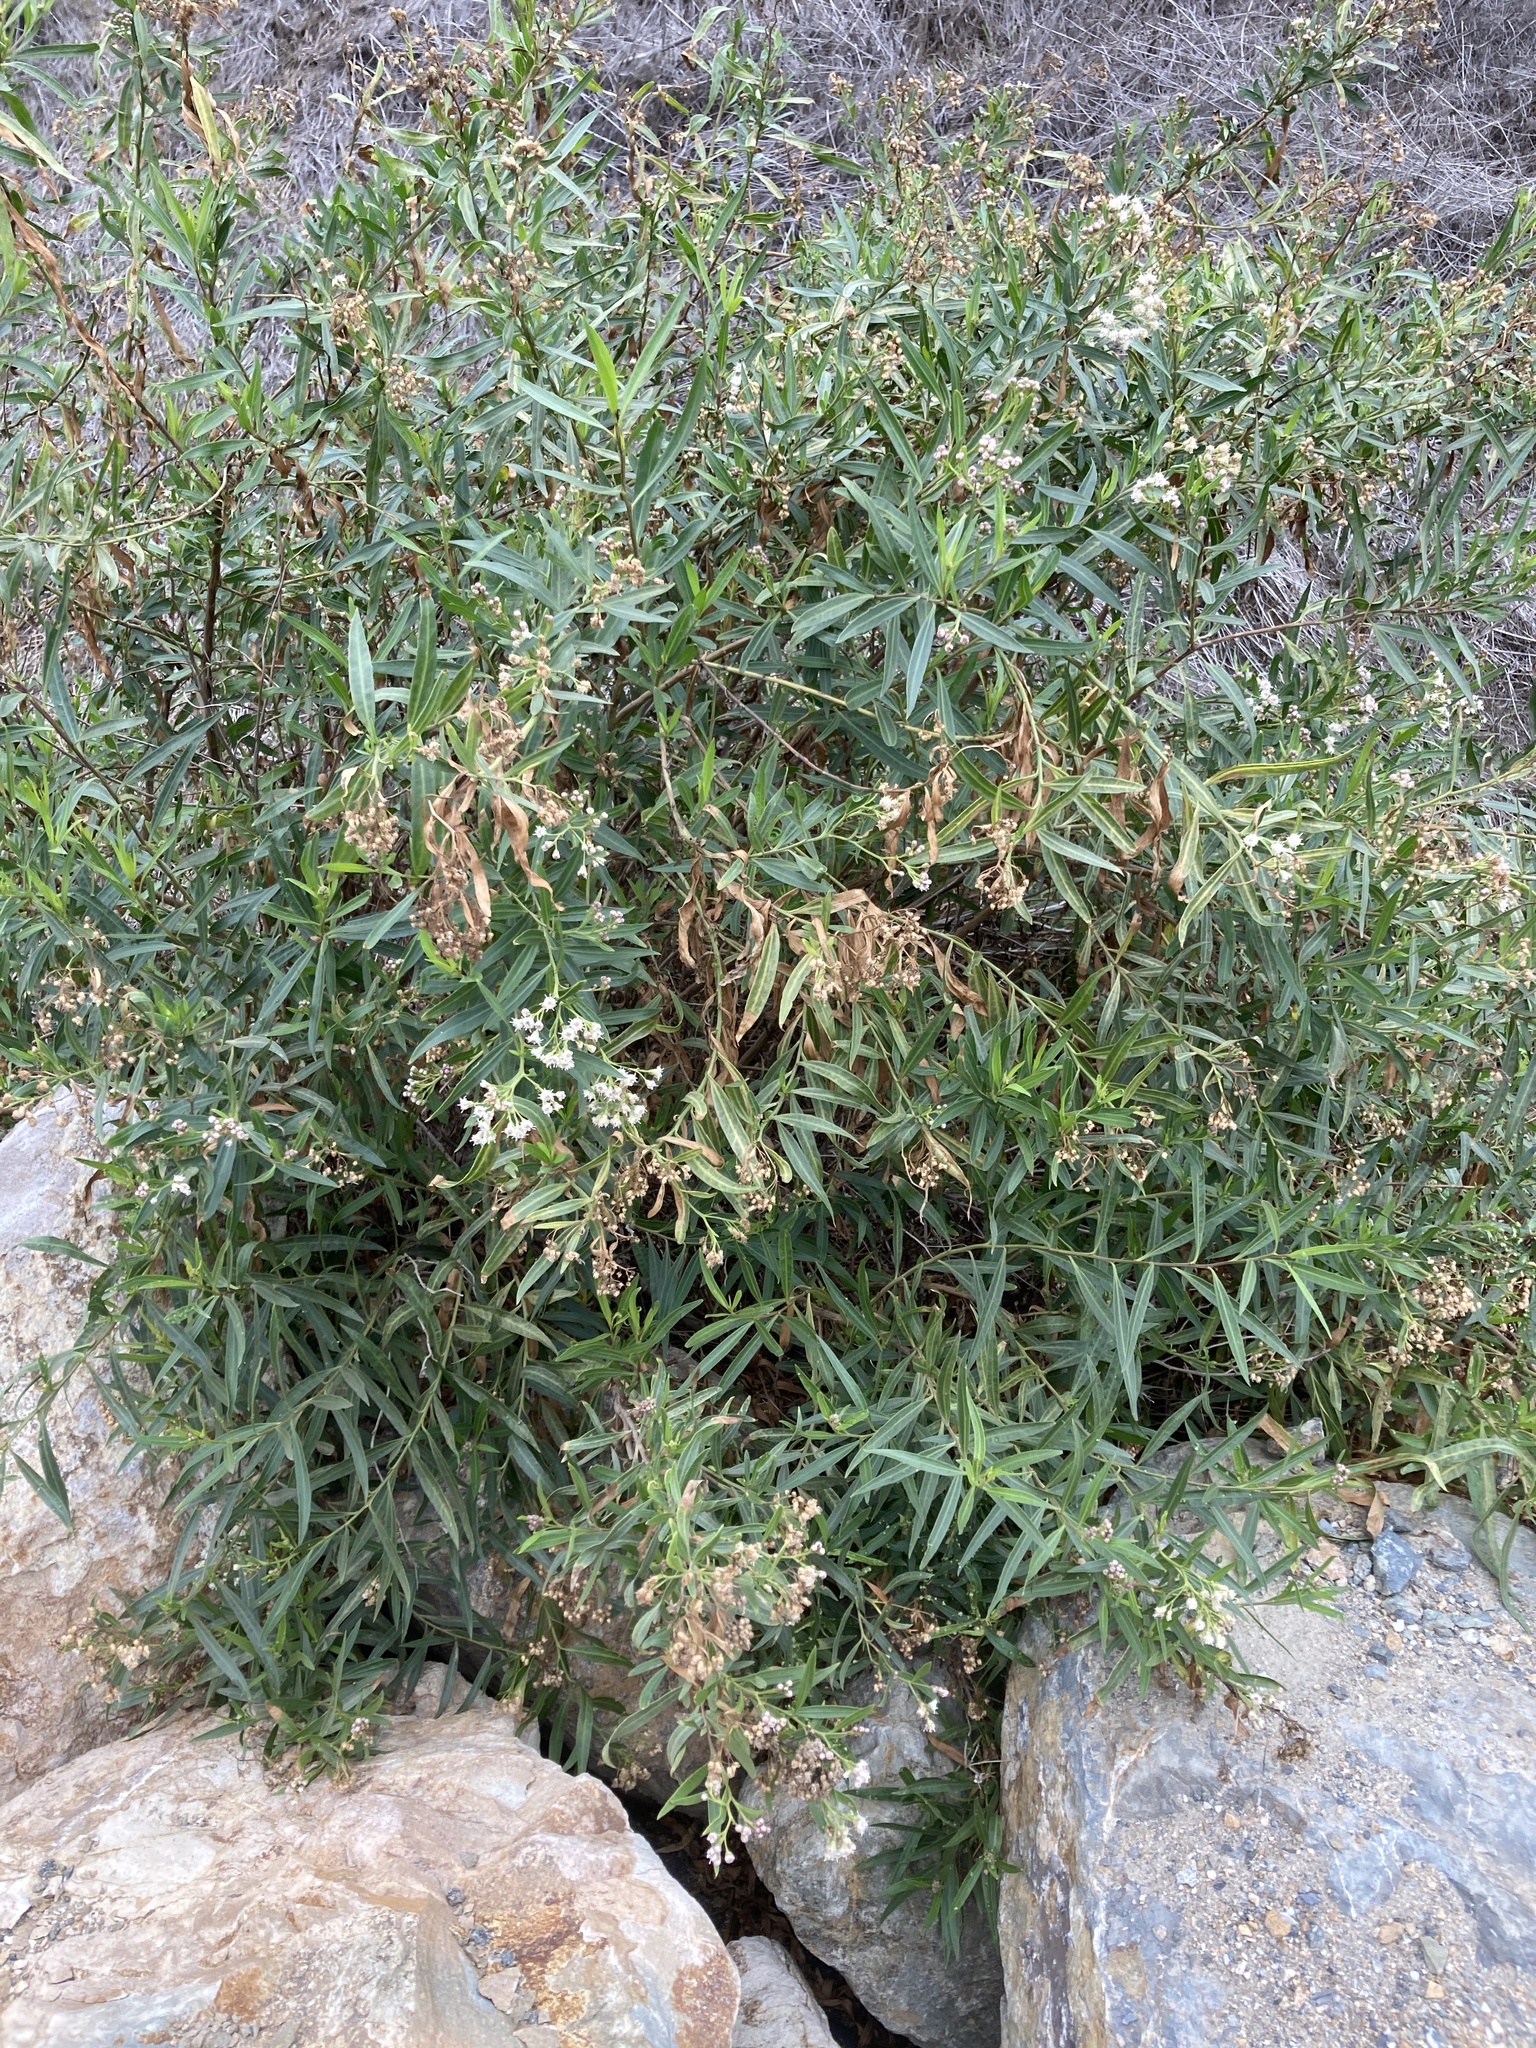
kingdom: Plantae
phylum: Tracheophyta
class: Magnoliopsida
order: Asterales
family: Asteraceae
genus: Baccharis
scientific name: Baccharis salicifolia
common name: Sticky baccharis
